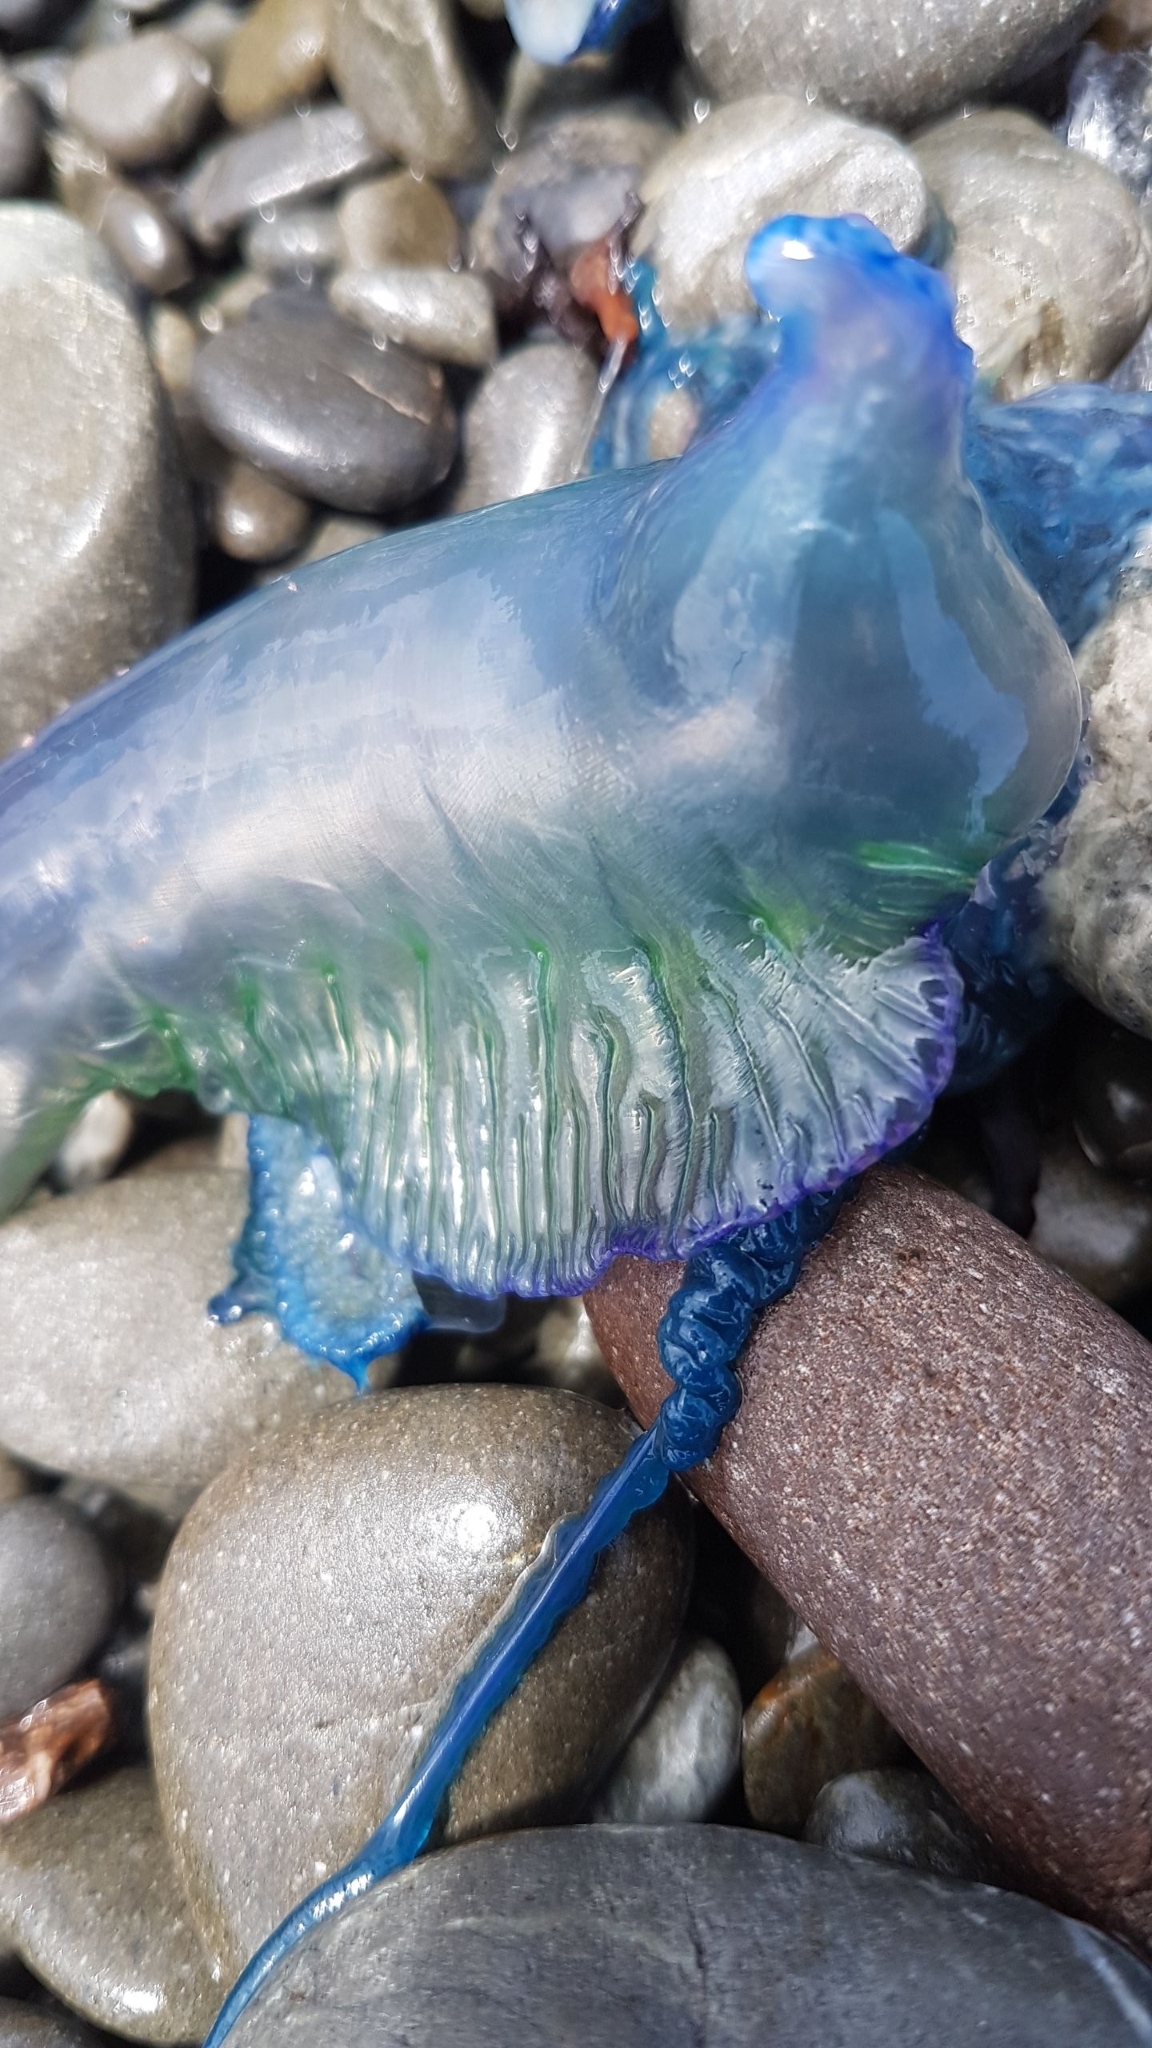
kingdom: Animalia
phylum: Cnidaria
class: Hydrozoa
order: Siphonophorae
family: Physaliidae
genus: Physalia
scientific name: Physalia physalis
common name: Portuguese man-of-war
